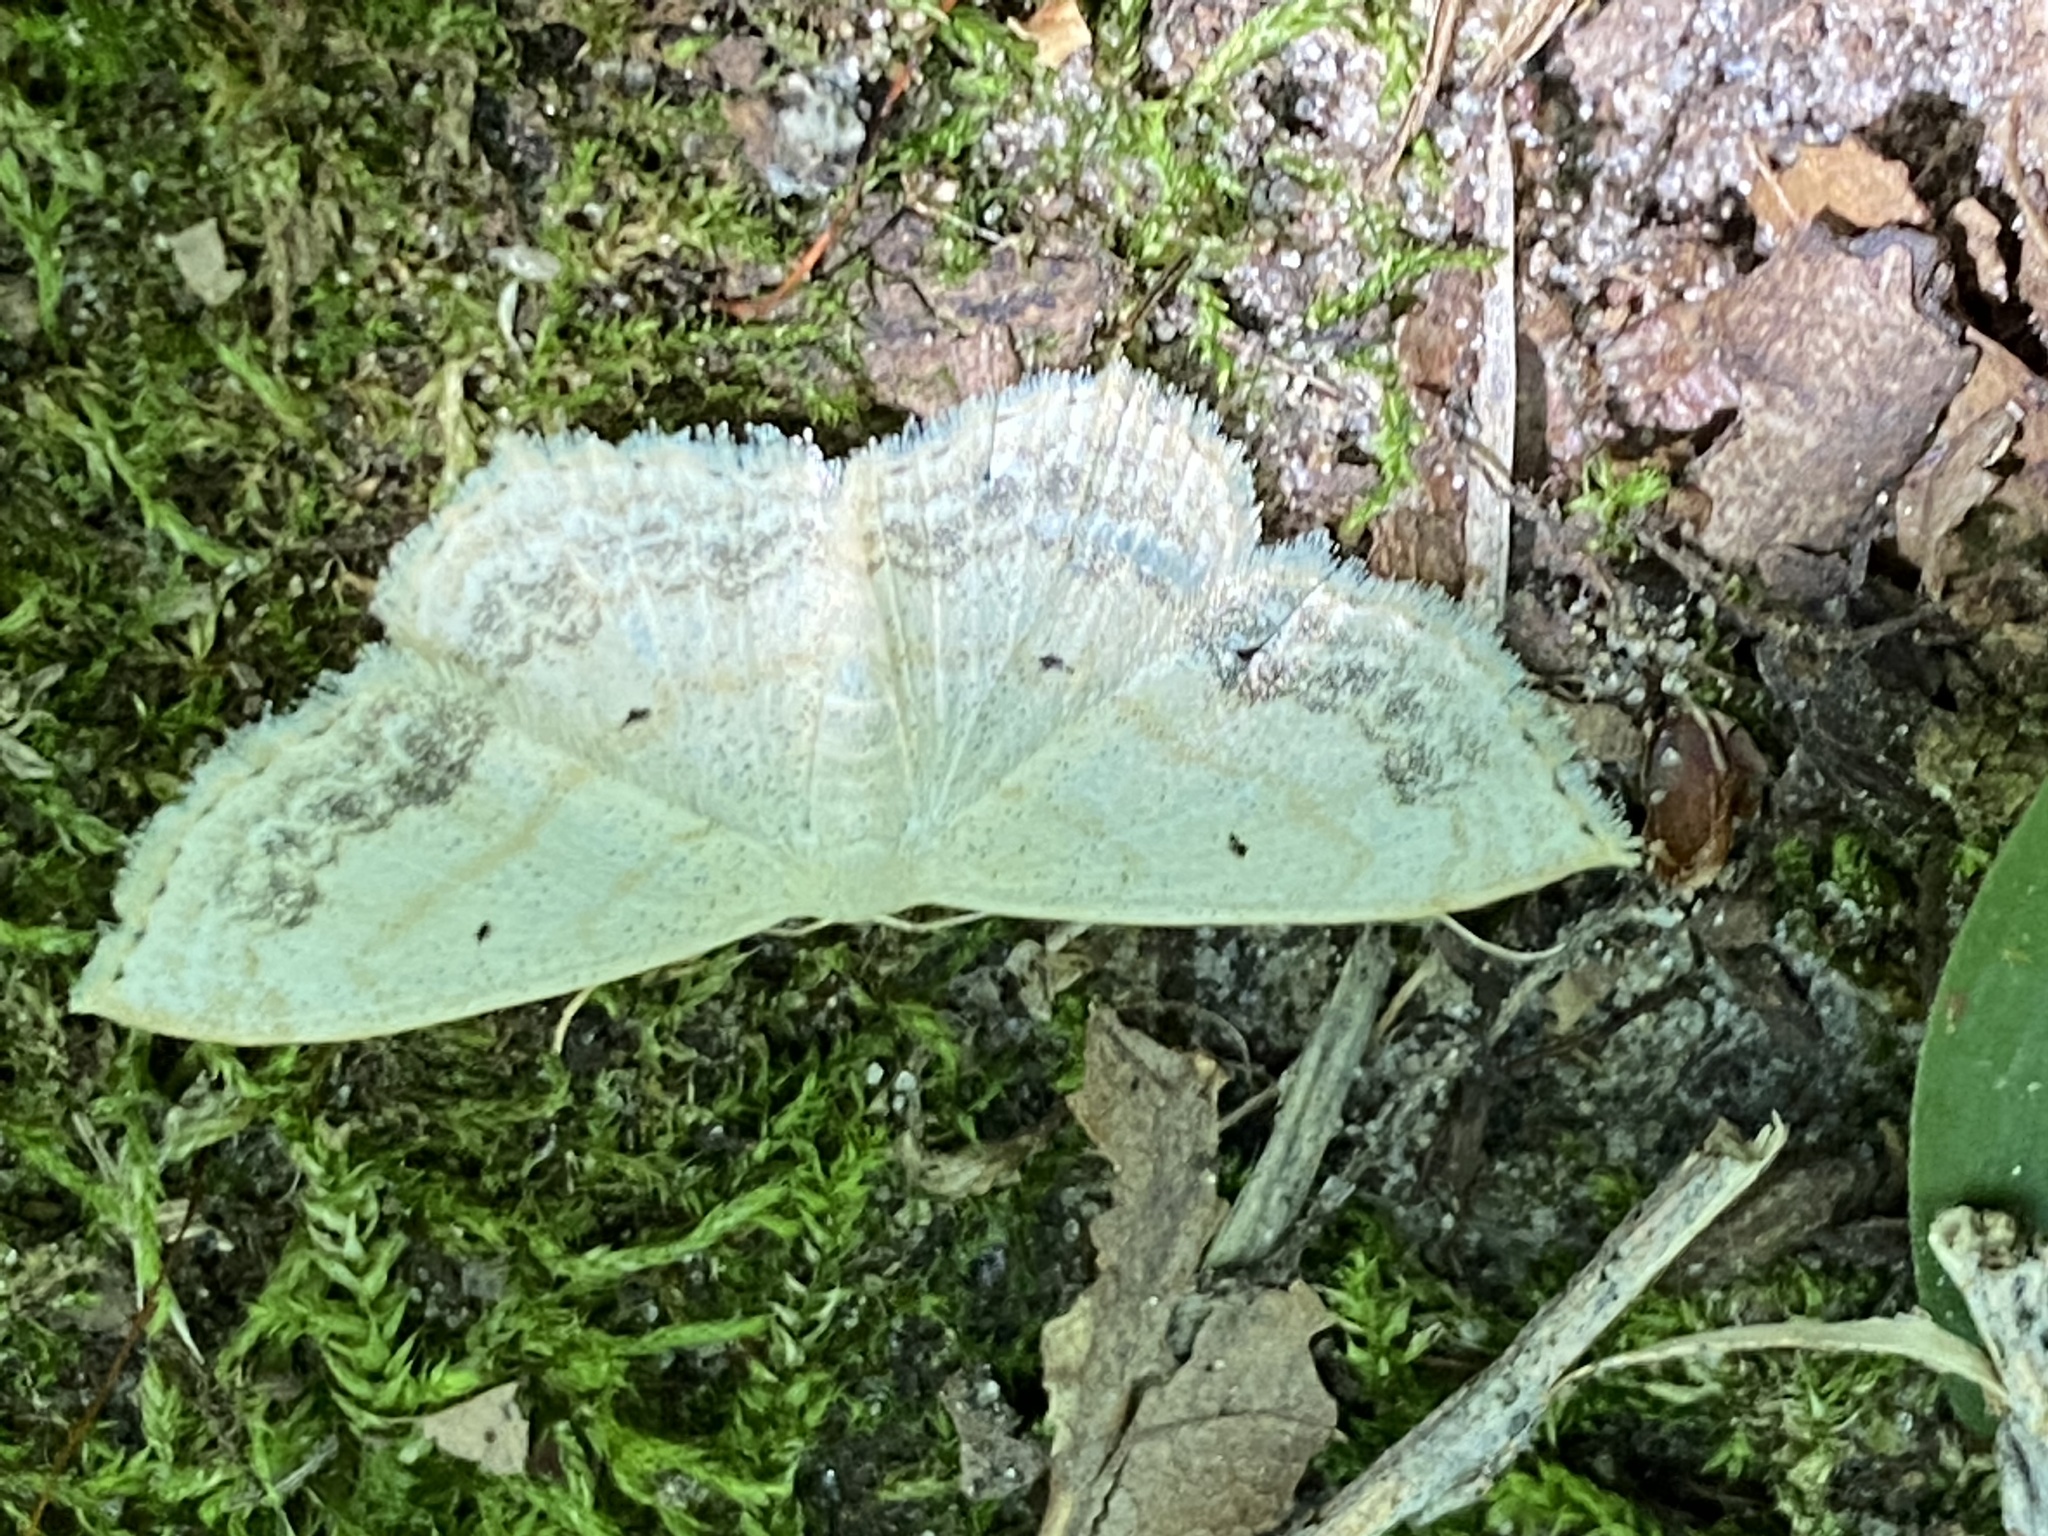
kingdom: Animalia
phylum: Arthropoda
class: Insecta
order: Lepidoptera
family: Geometridae
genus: Scopula
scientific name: Scopula limboundata
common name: Large lace border
